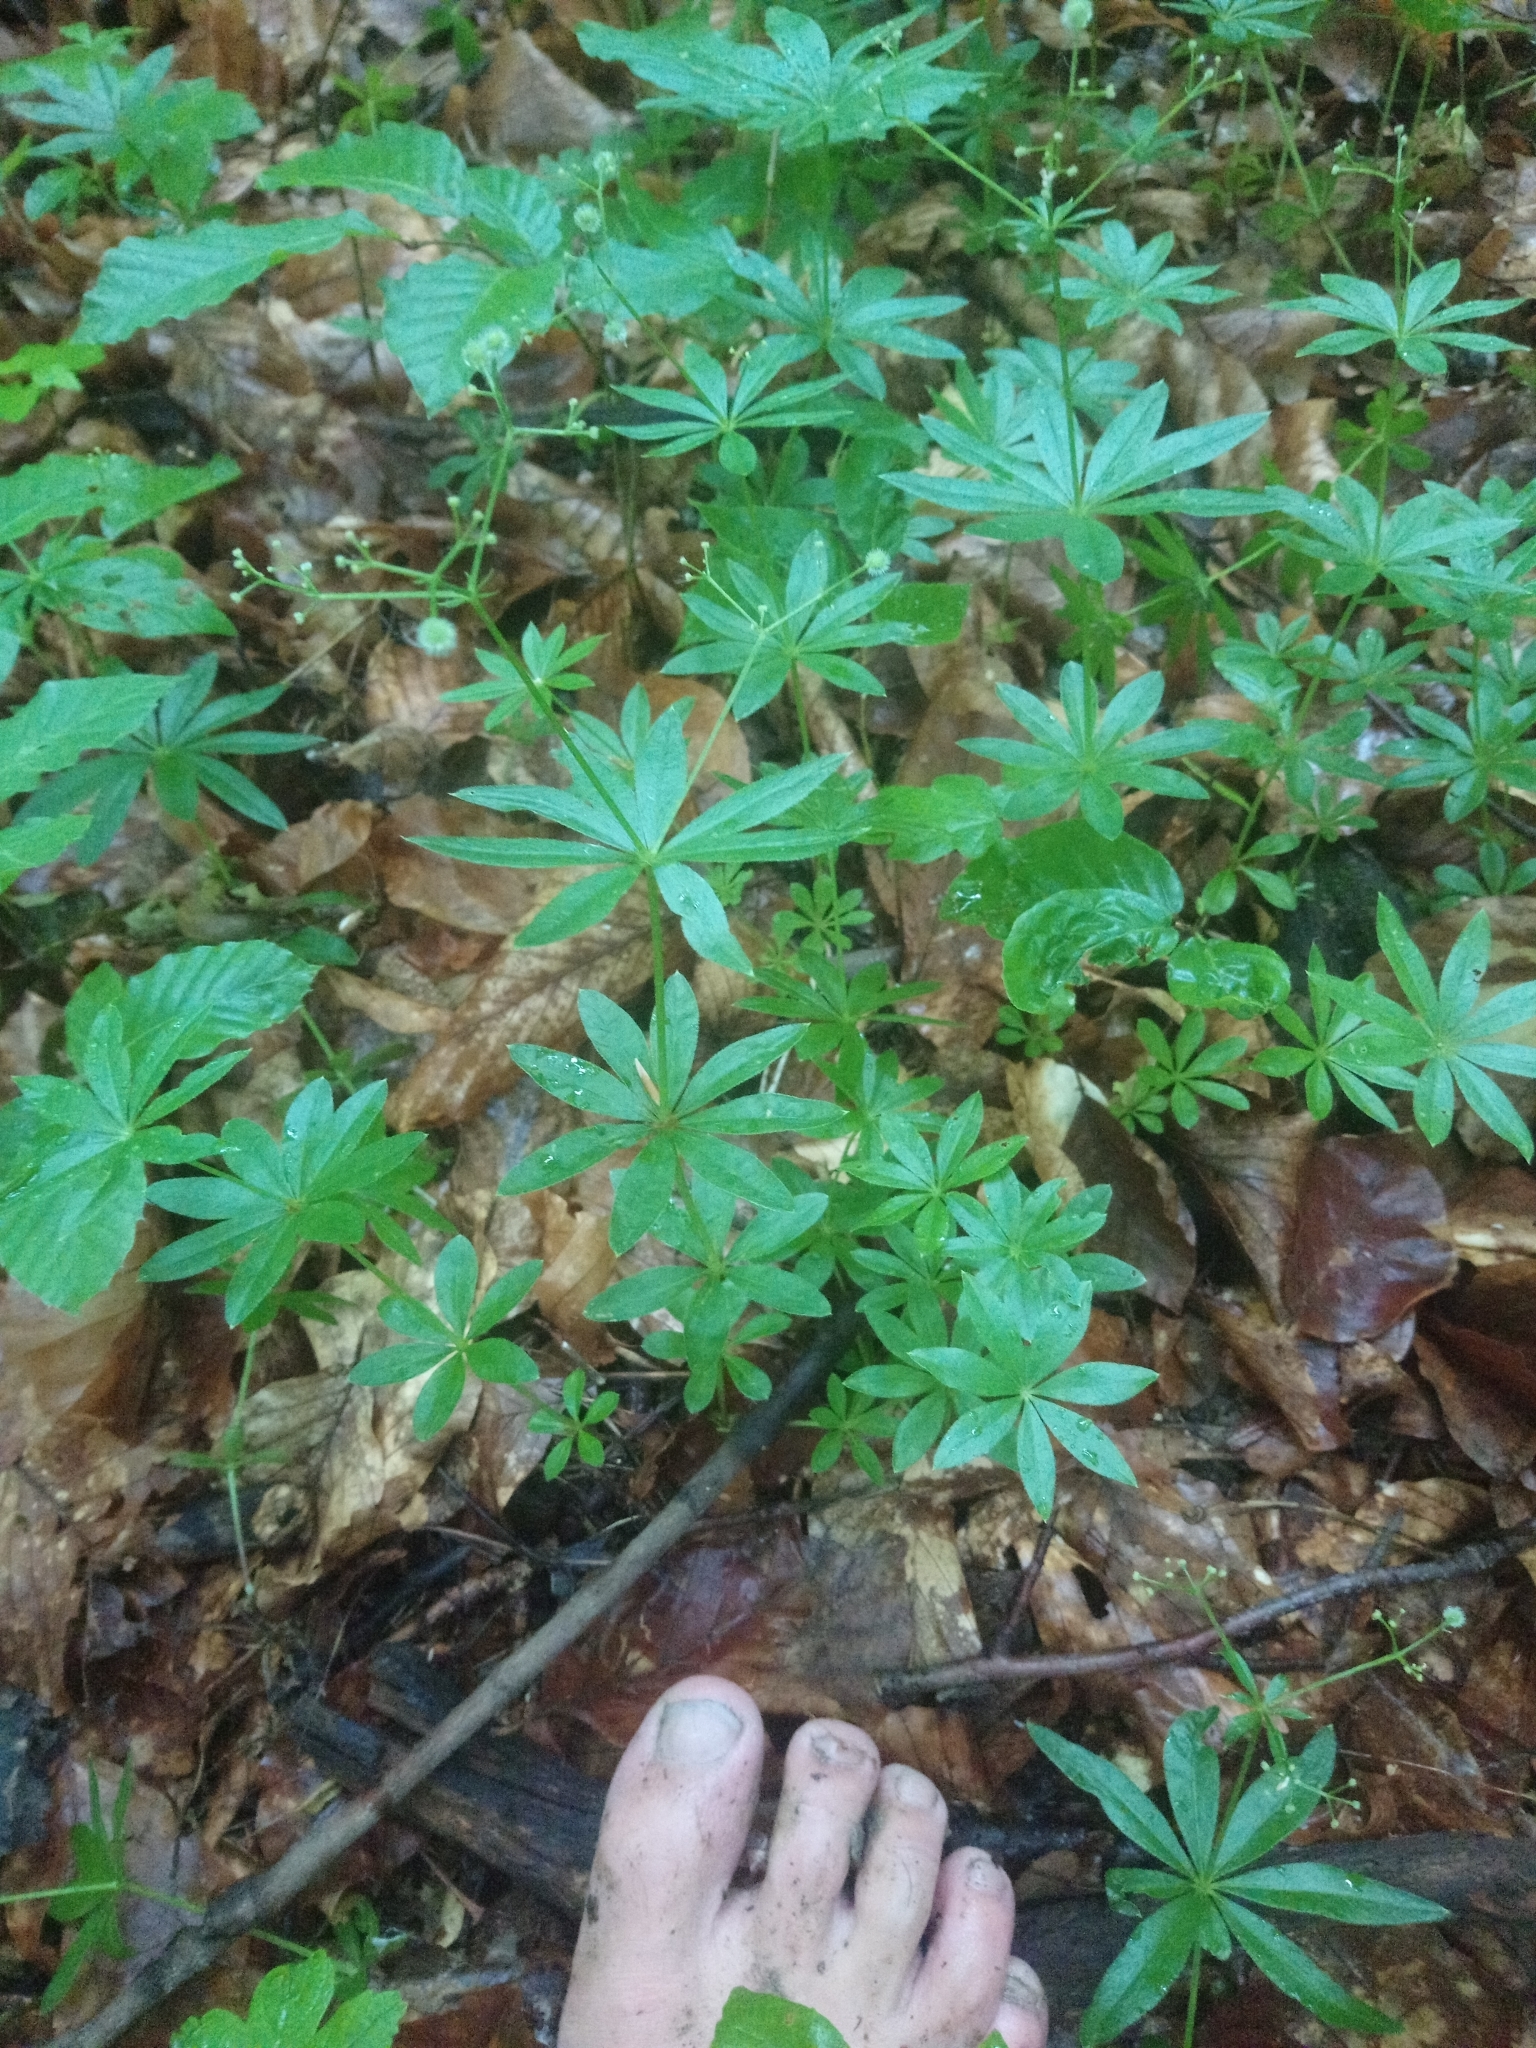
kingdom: Plantae
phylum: Tracheophyta
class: Magnoliopsida
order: Gentianales
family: Rubiaceae
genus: Galium
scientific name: Galium odoratum
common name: Sweet woodruff
